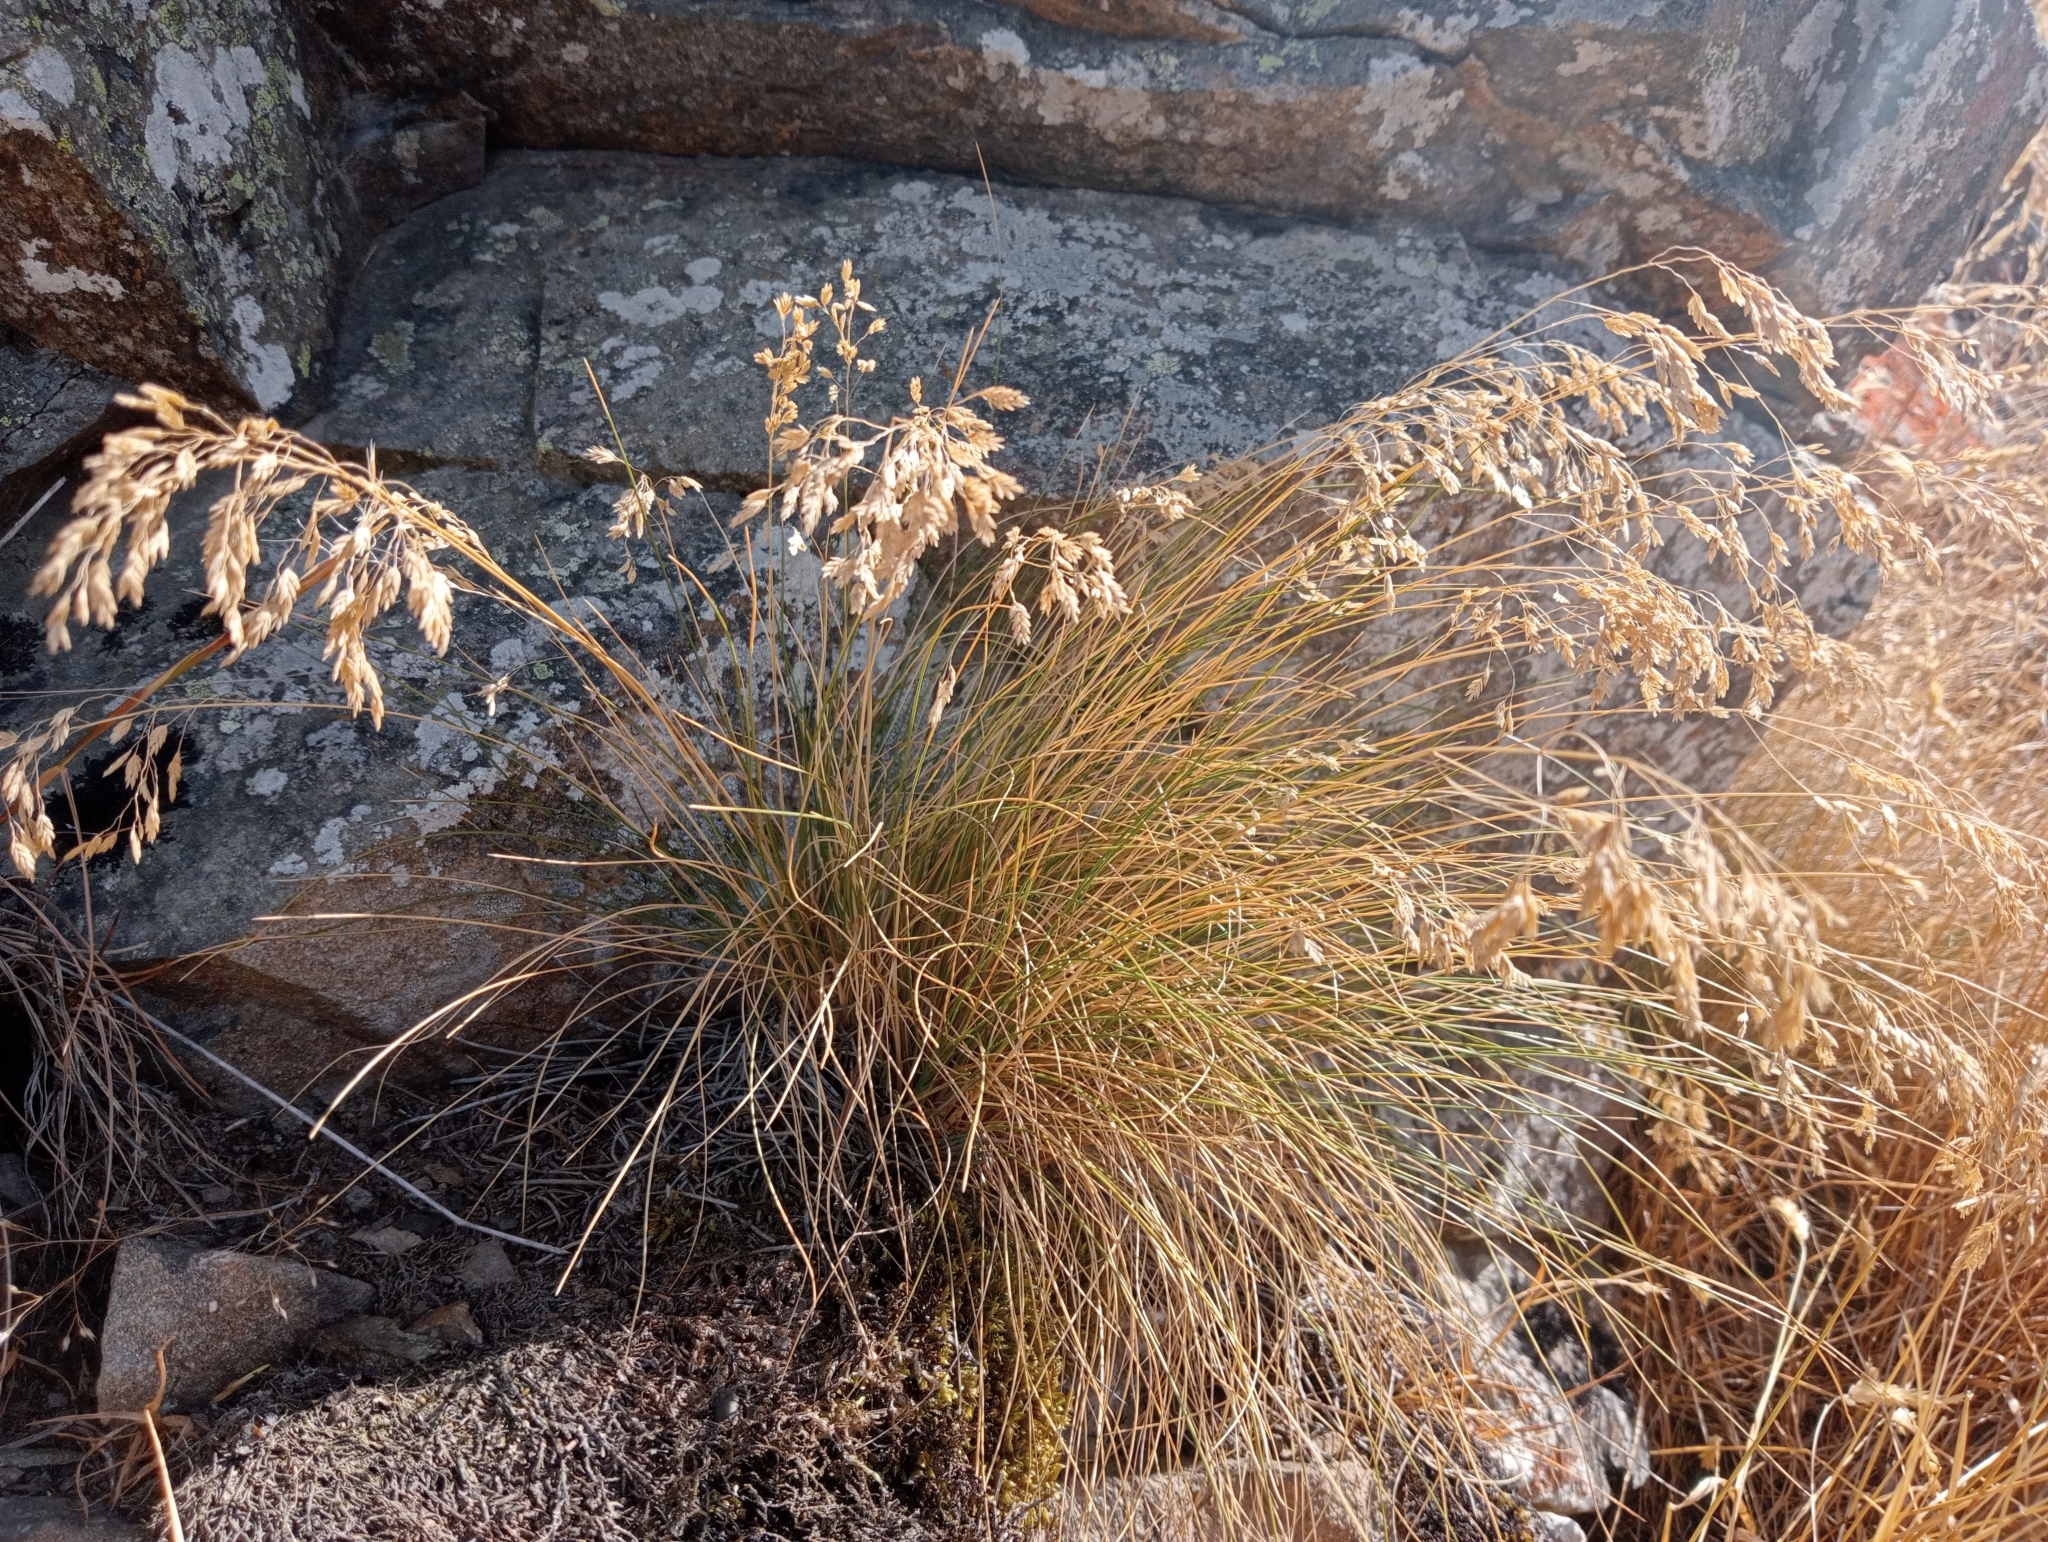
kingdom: Plantae
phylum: Tracheophyta
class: Liliopsida
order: Poales
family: Poaceae
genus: Poa
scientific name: Poa colensoi
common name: Blue tussock
